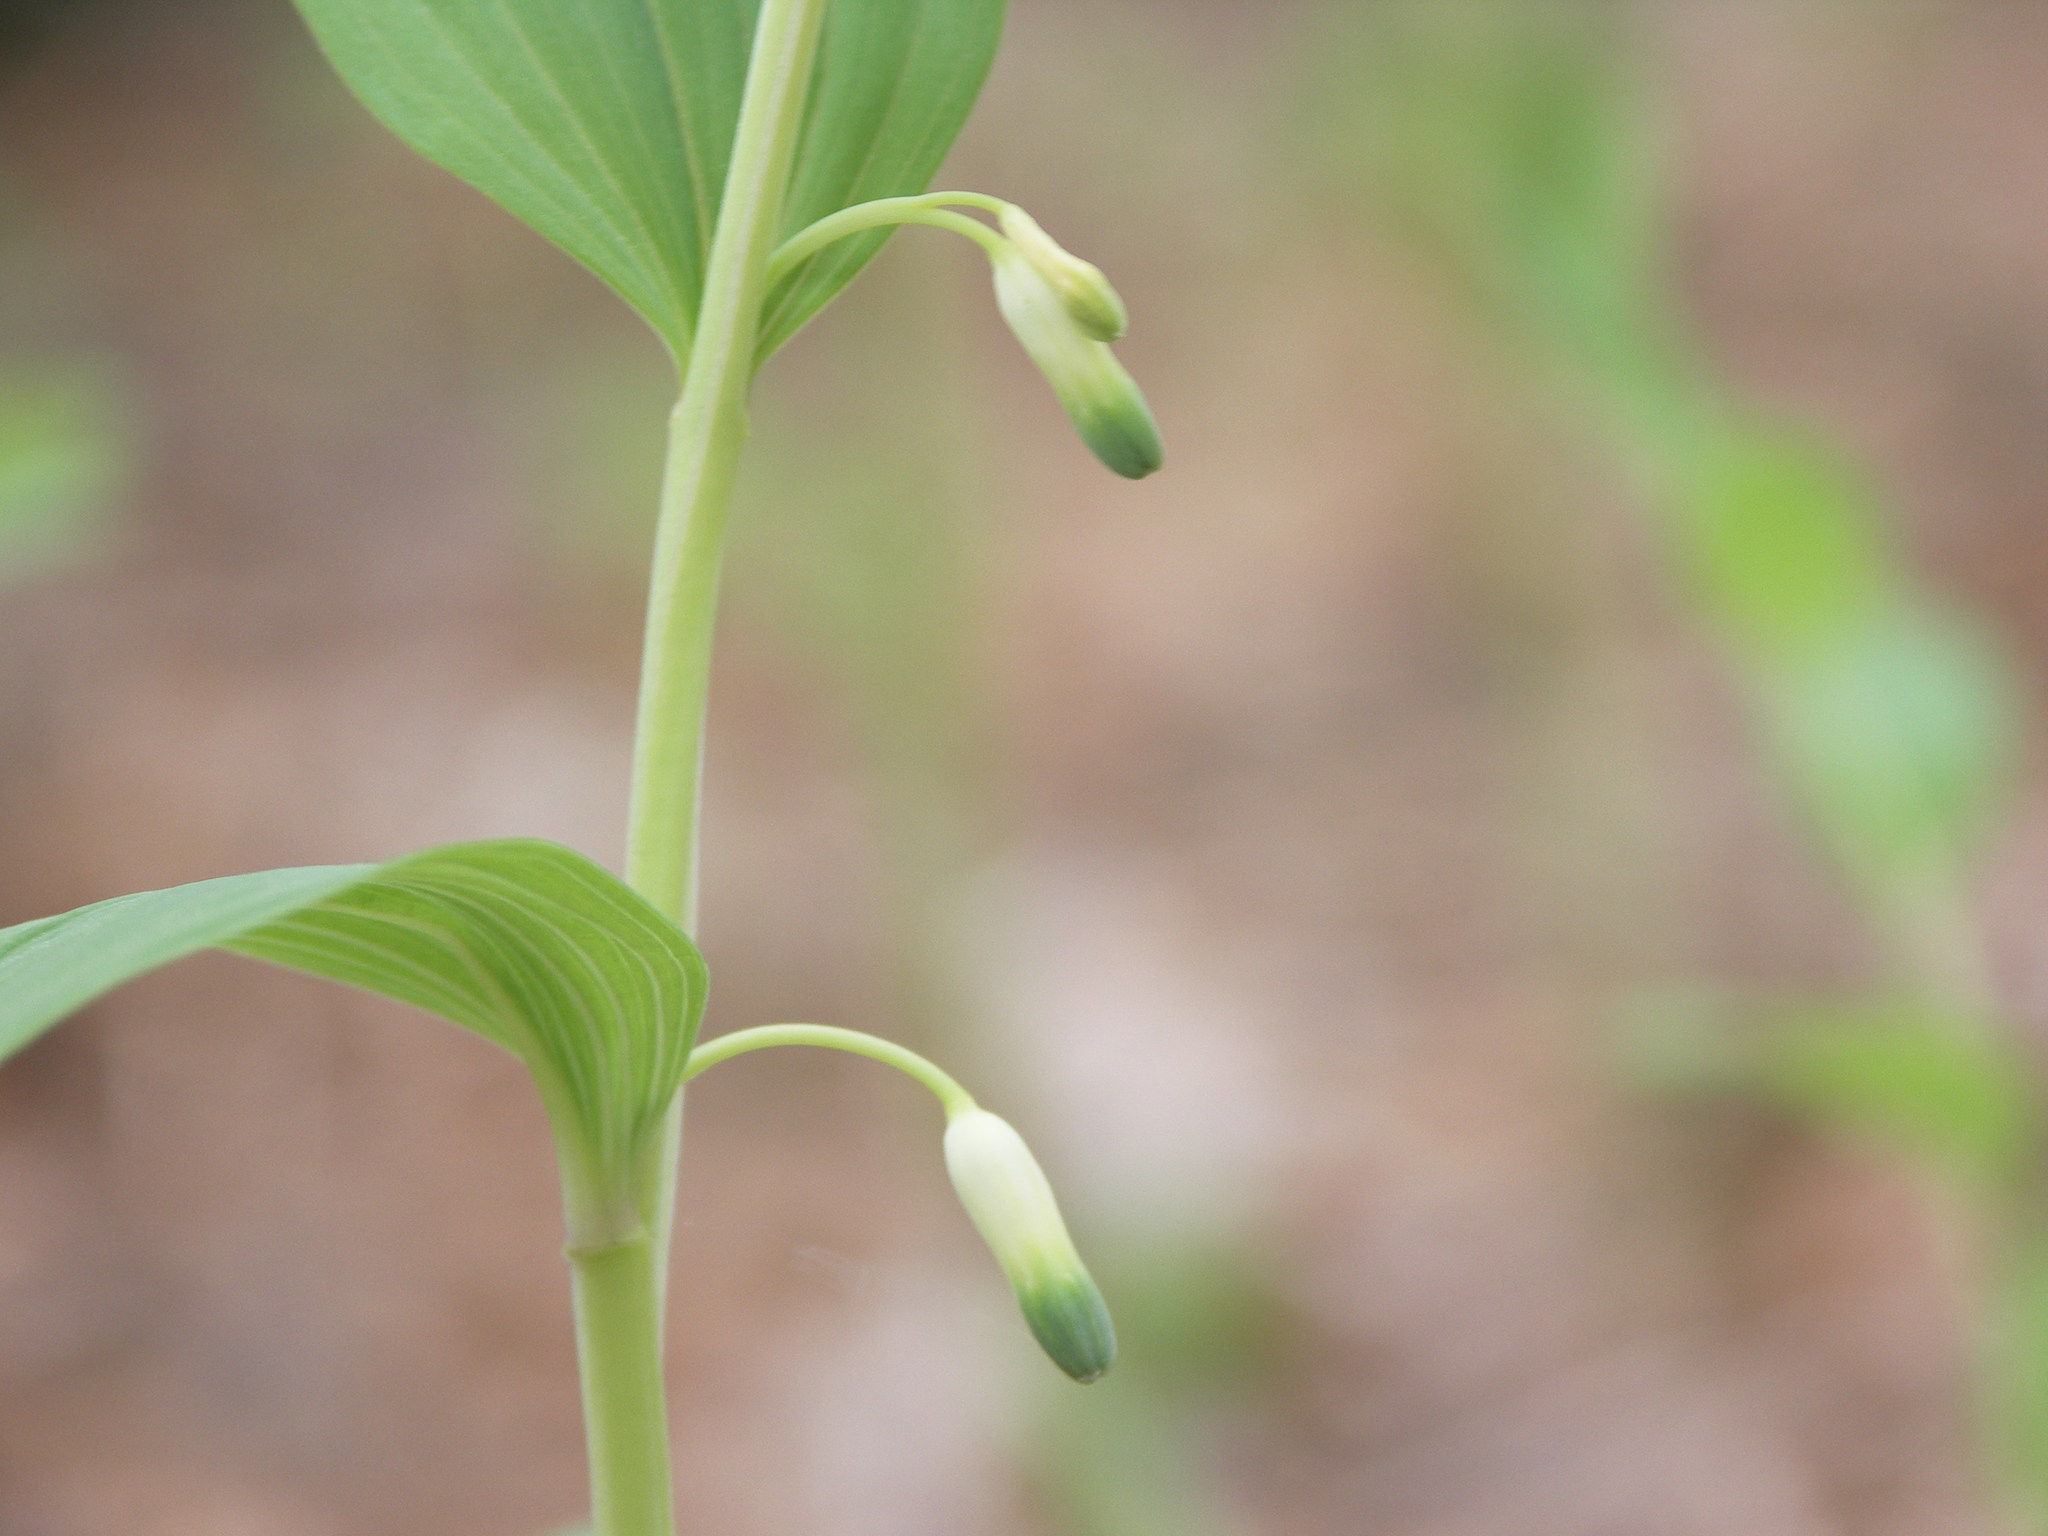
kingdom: Plantae
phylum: Tracheophyta
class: Liliopsida
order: Asparagales
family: Asparagaceae
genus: Polygonatum
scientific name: Polygonatum odoratum
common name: Angular solomon's-seal
